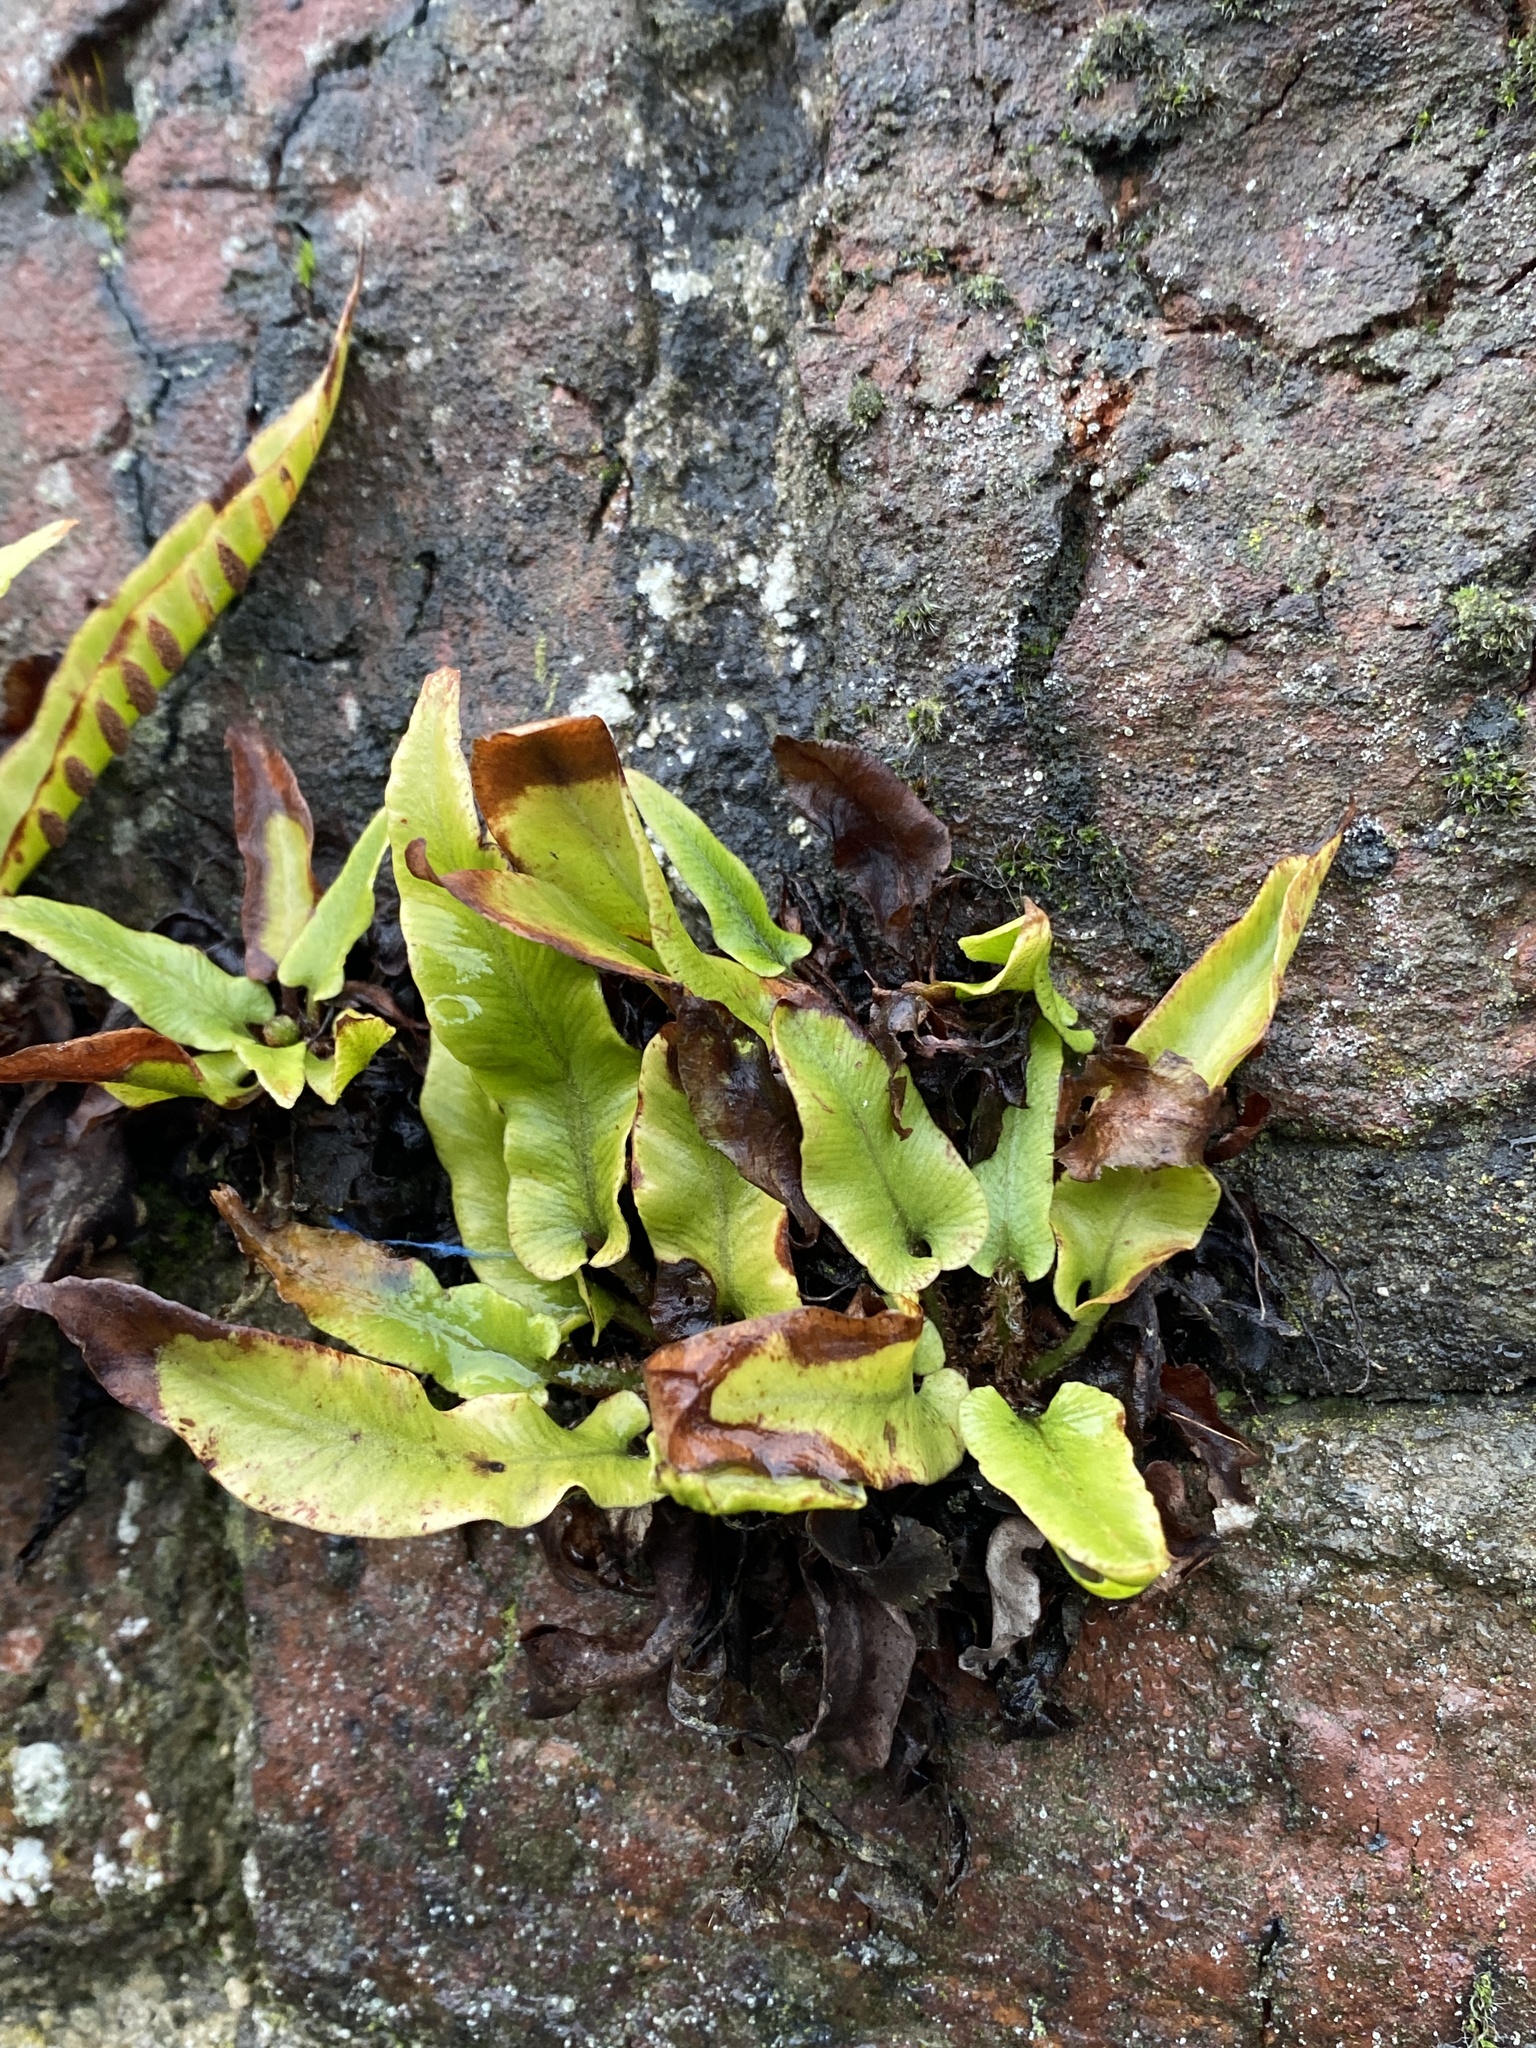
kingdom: Plantae
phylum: Tracheophyta
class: Polypodiopsida
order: Polypodiales
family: Aspleniaceae
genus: Asplenium
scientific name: Asplenium scolopendrium
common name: Hart's-tongue fern
